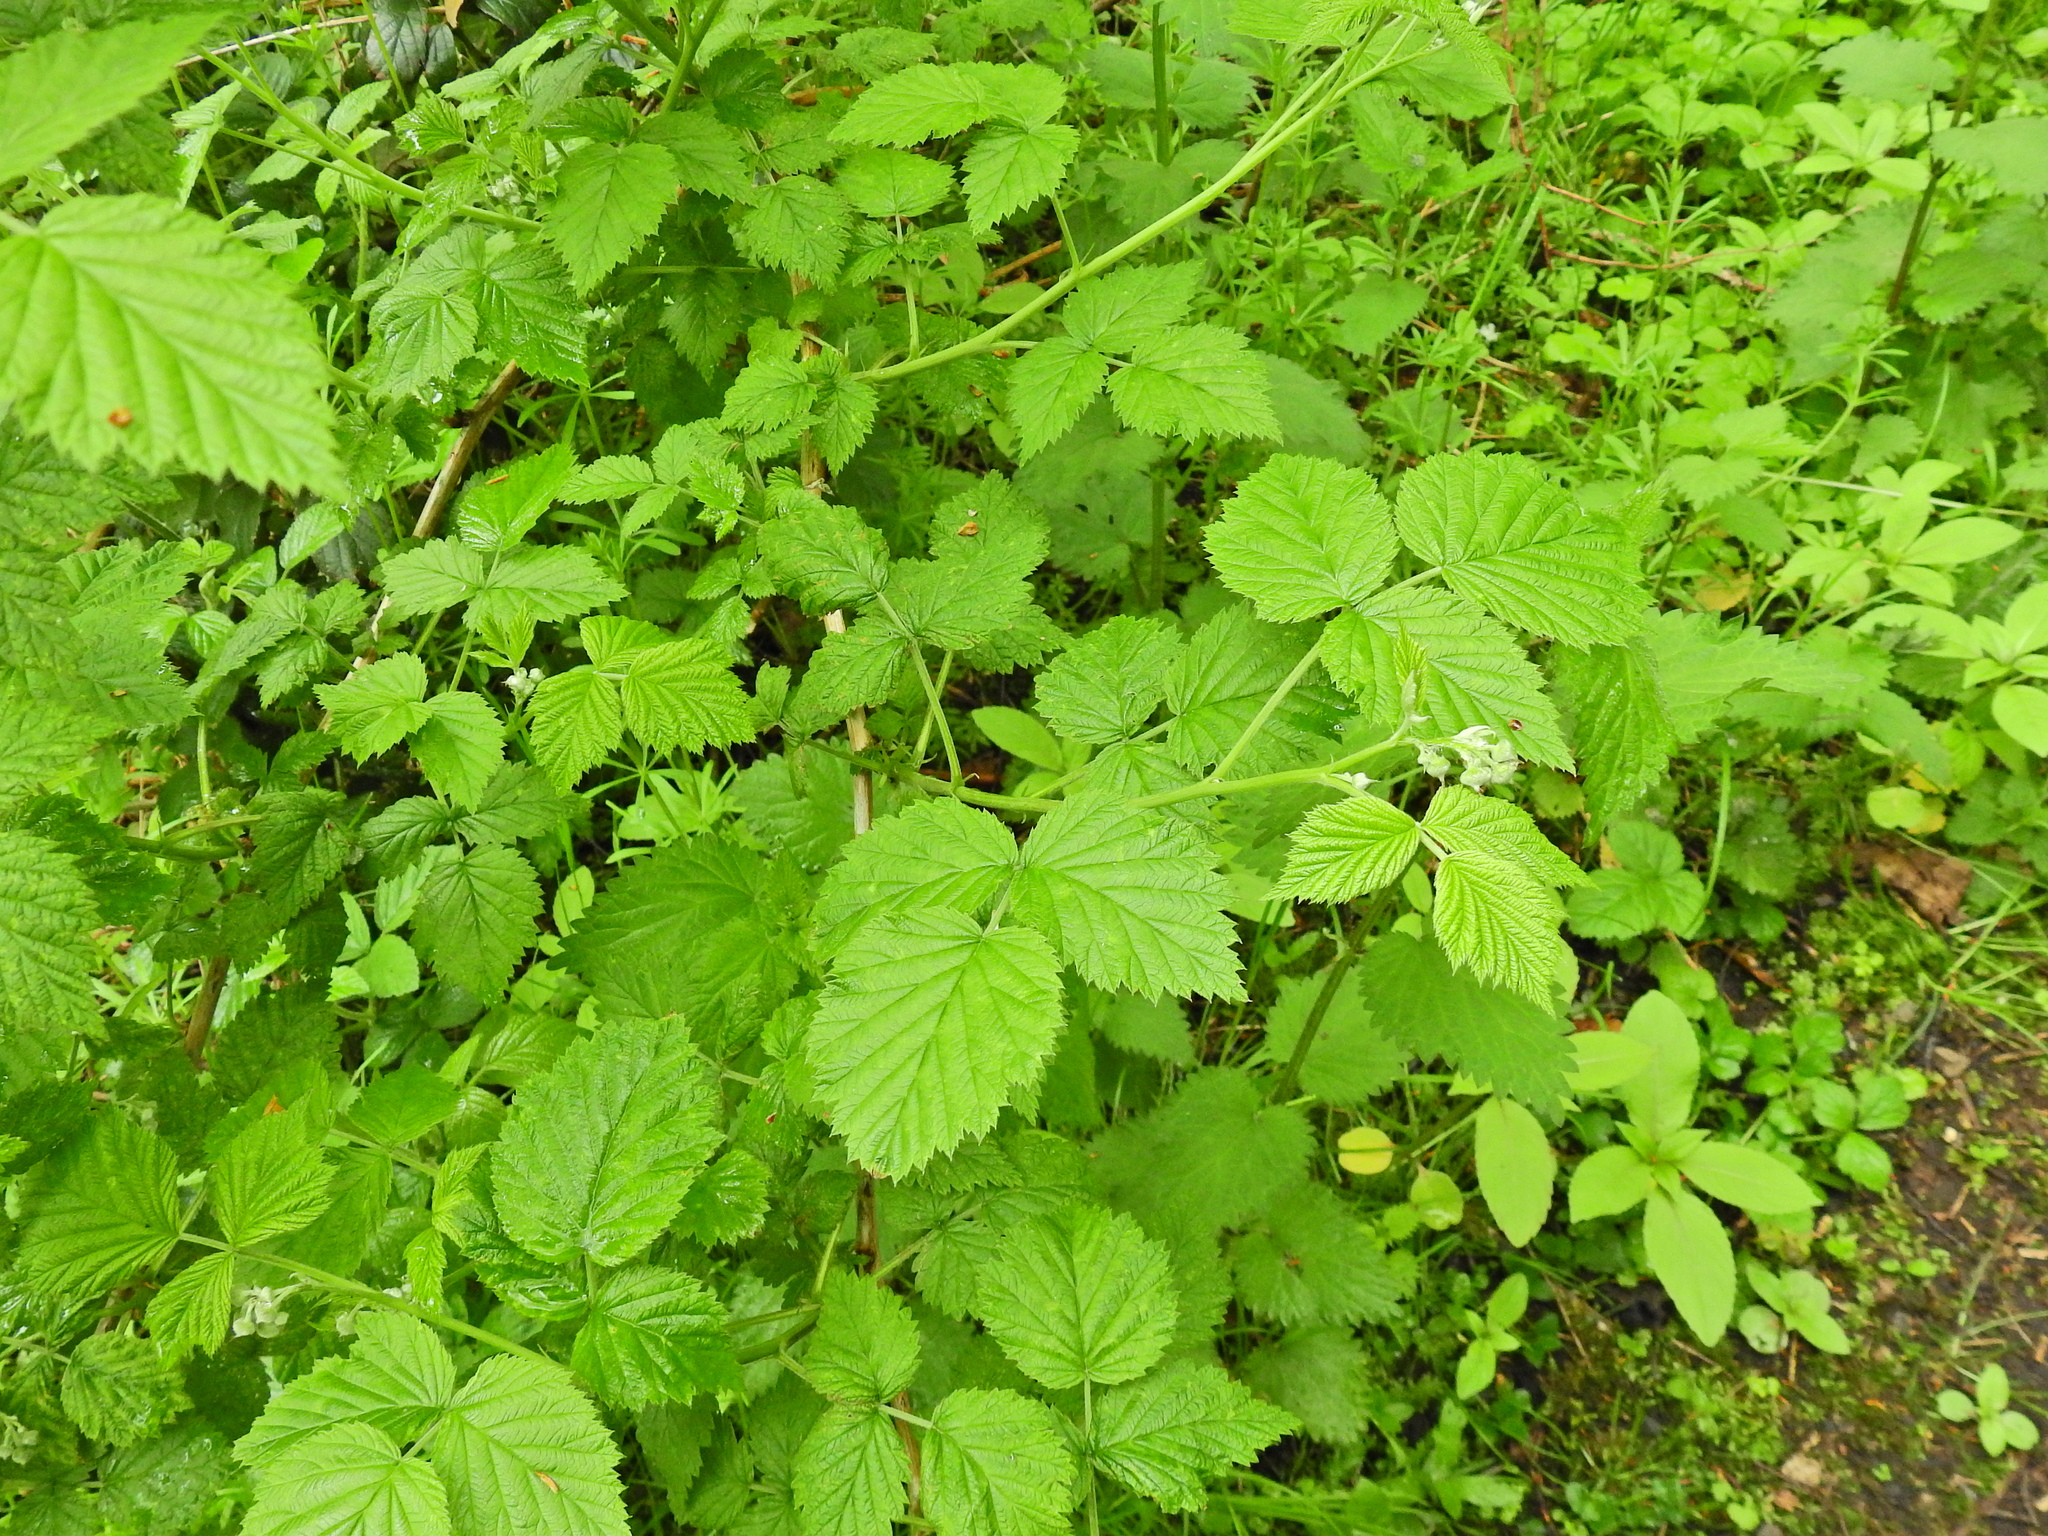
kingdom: Plantae
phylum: Tracheophyta
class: Magnoliopsida
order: Rosales
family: Rosaceae
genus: Rubus
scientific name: Rubus idaeus
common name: Raspberry
